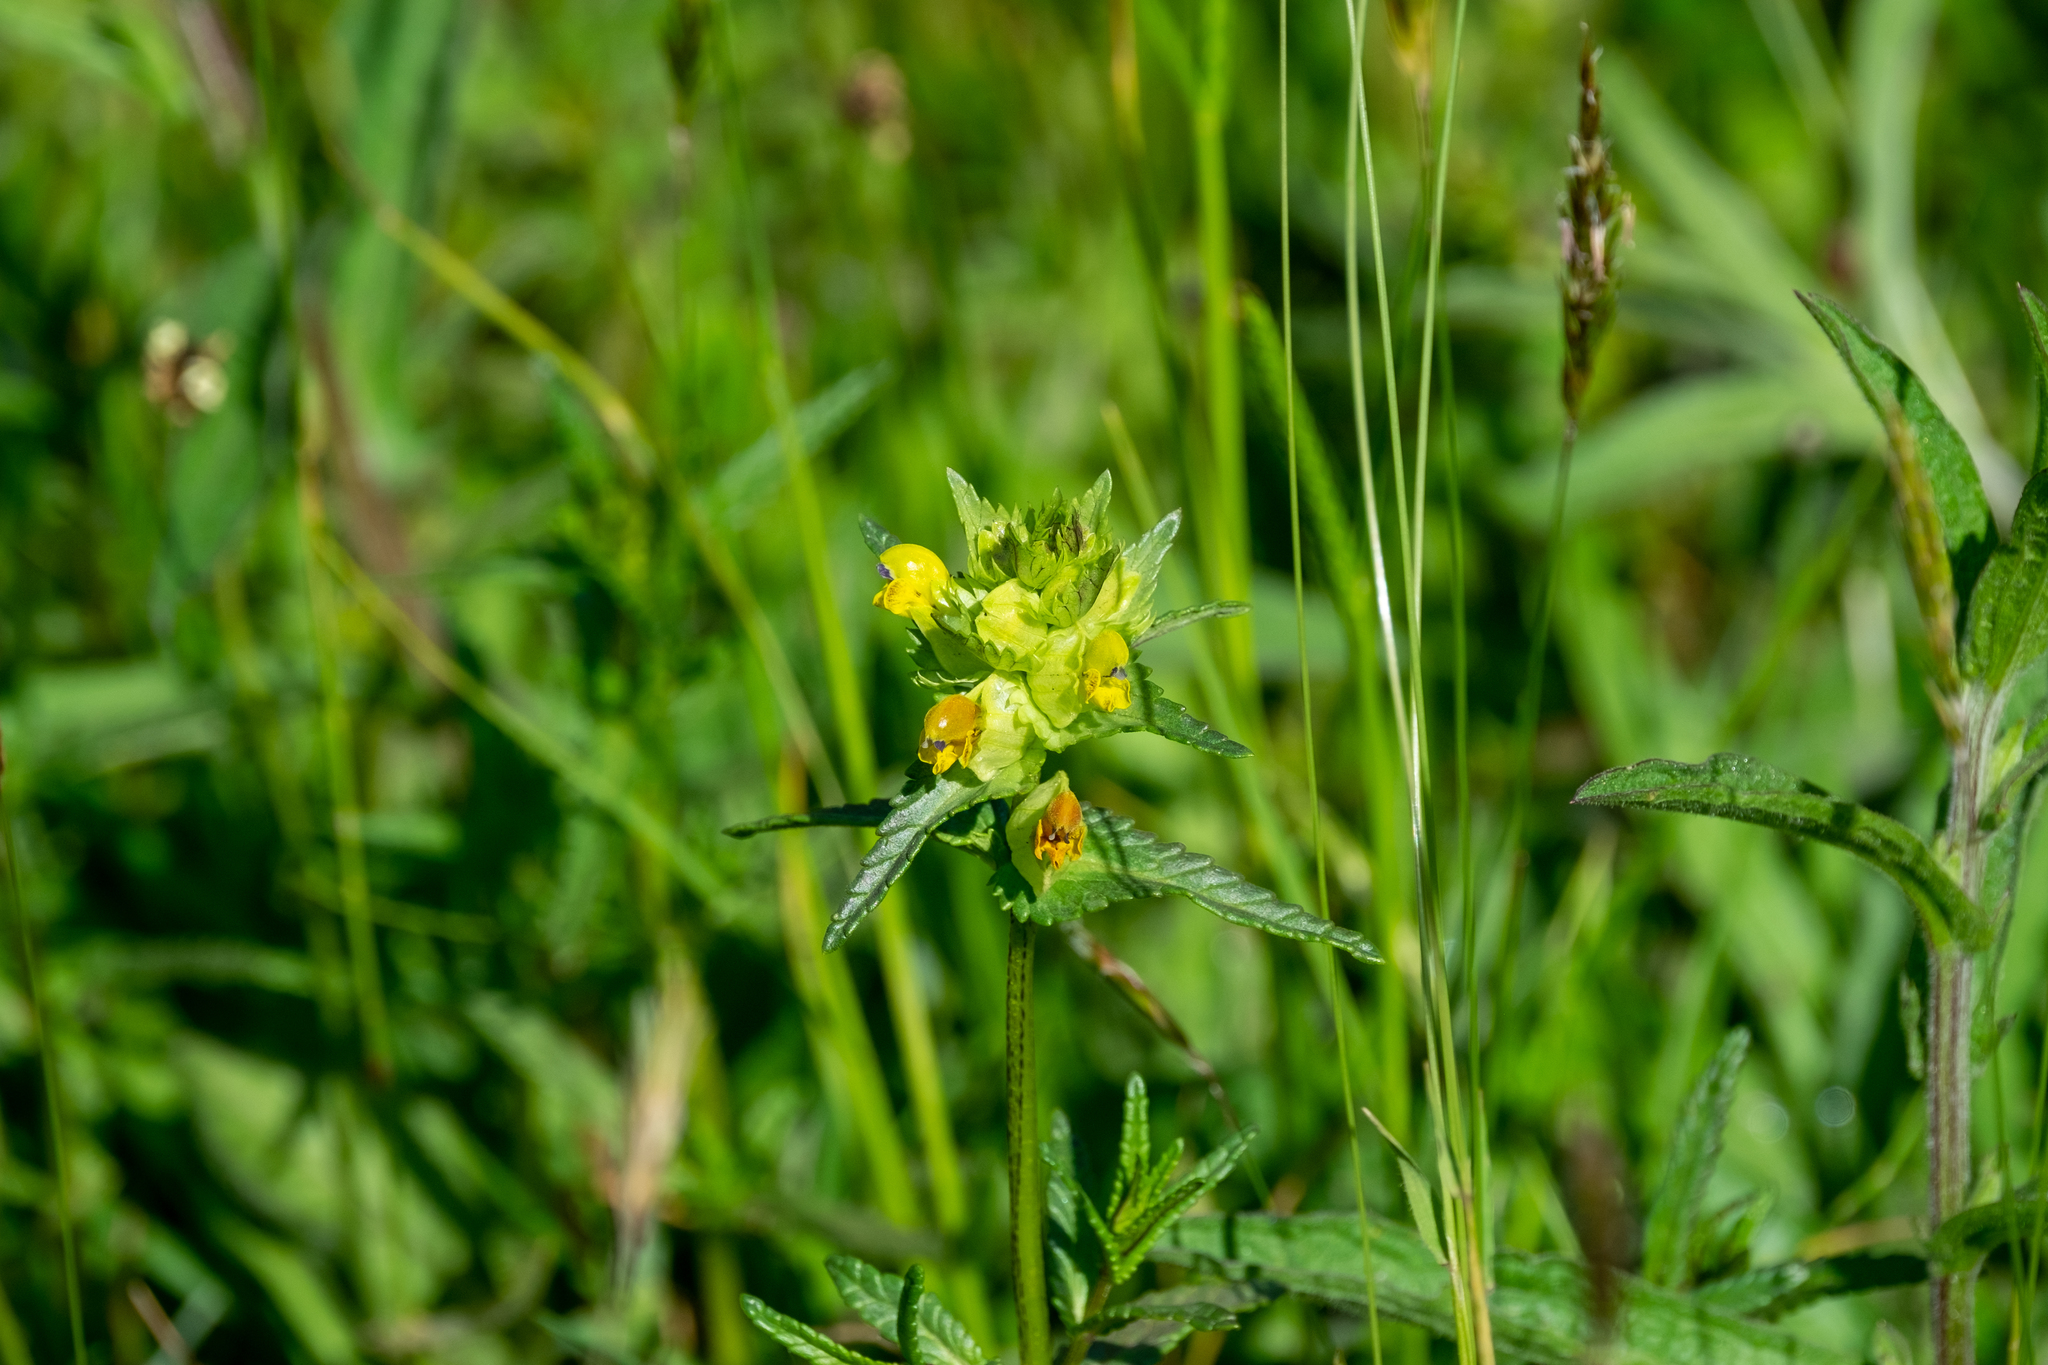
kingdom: Plantae
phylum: Tracheophyta
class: Magnoliopsida
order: Lamiales
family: Orobanchaceae
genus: Rhinanthus
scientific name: Rhinanthus minor
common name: Yellow-rattle
